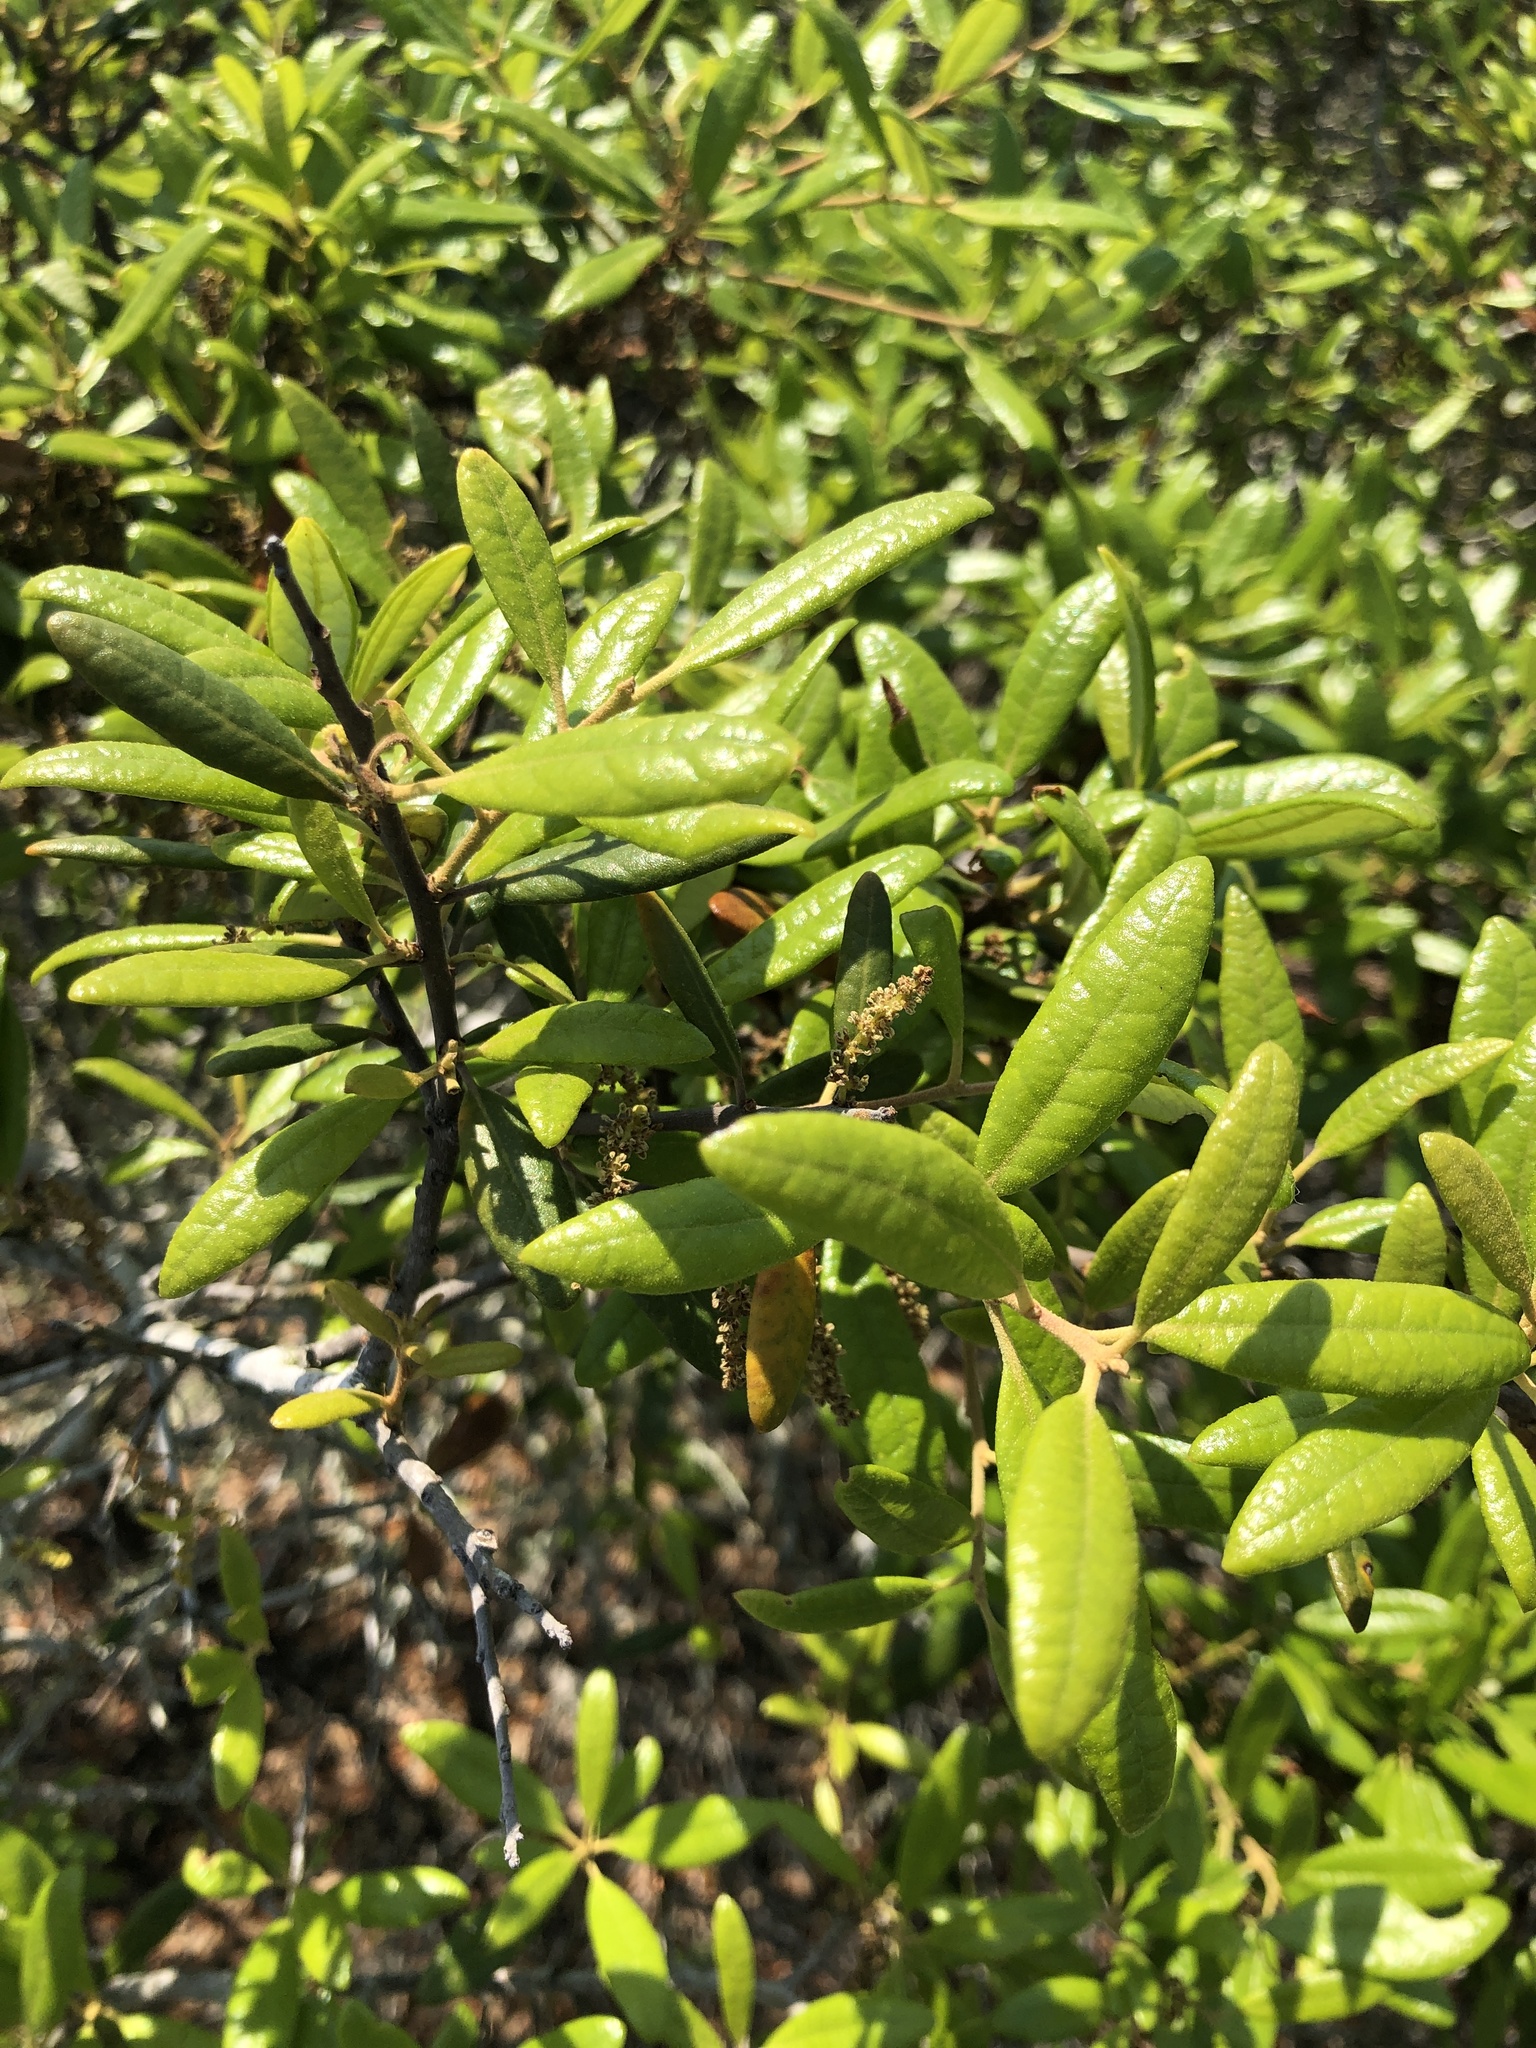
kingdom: Plantae
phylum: Tracheophyta
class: Magnoliopsida
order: Fagales
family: Fagaceae
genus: Quercus
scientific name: Quercus geminata
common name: Sand live oak
